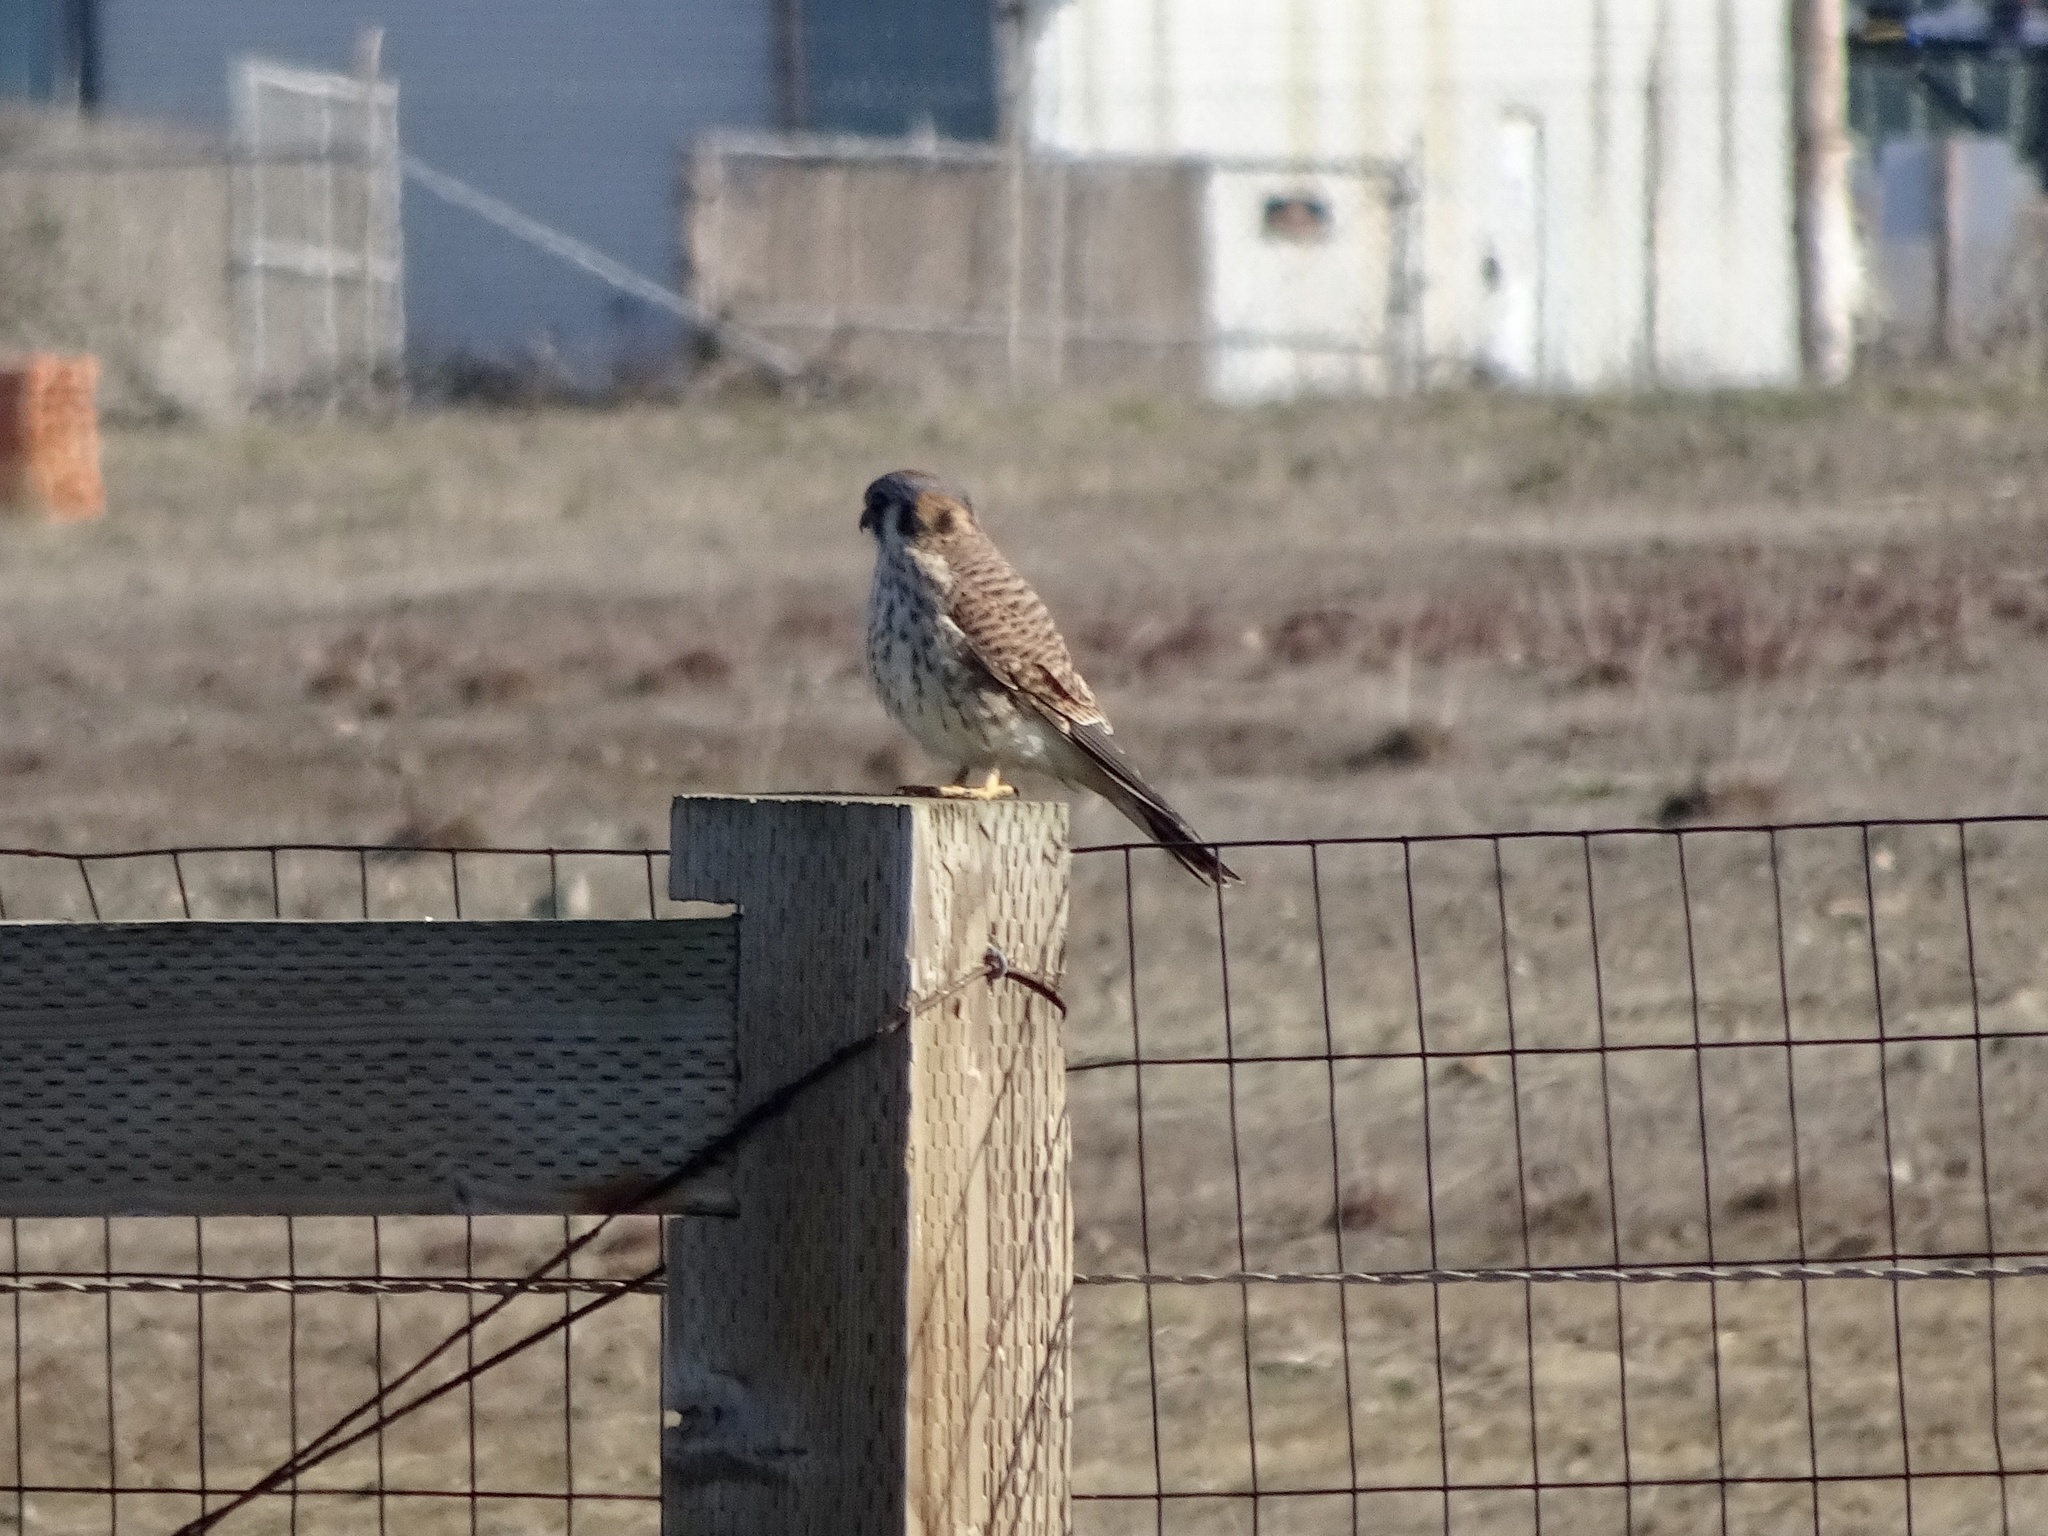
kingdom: Animalia
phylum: Chordata
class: Aves
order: Falconiformes
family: Falconidae
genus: Falco
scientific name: Falco sparverius
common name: American kestrel
